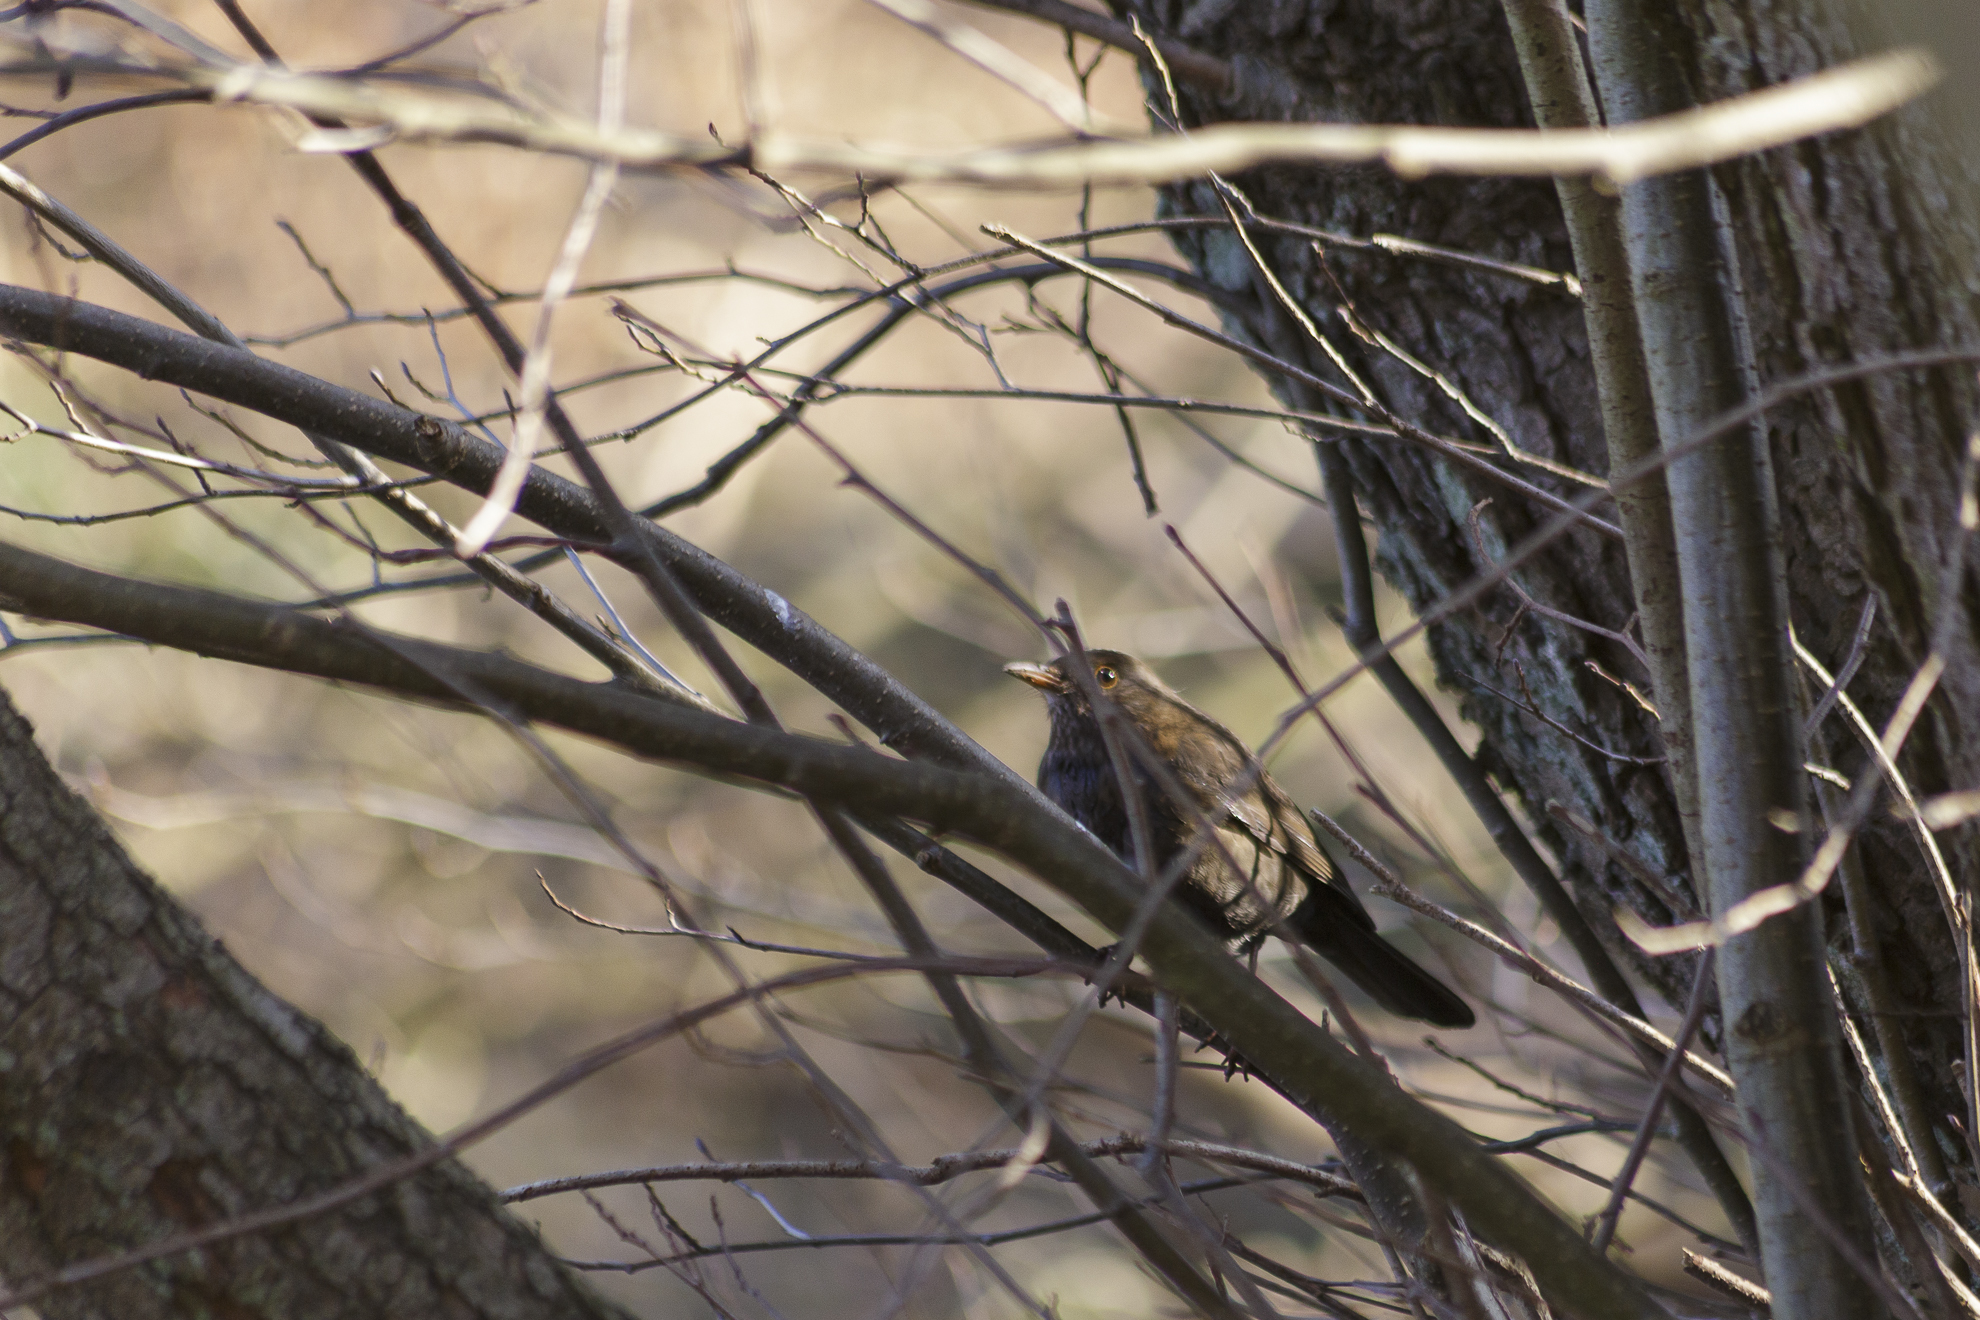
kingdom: Animalia
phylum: Chordata
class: Aves
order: Passeriformes
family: Turdidae
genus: Turdus
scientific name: Turdus merula
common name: Common blackbird
